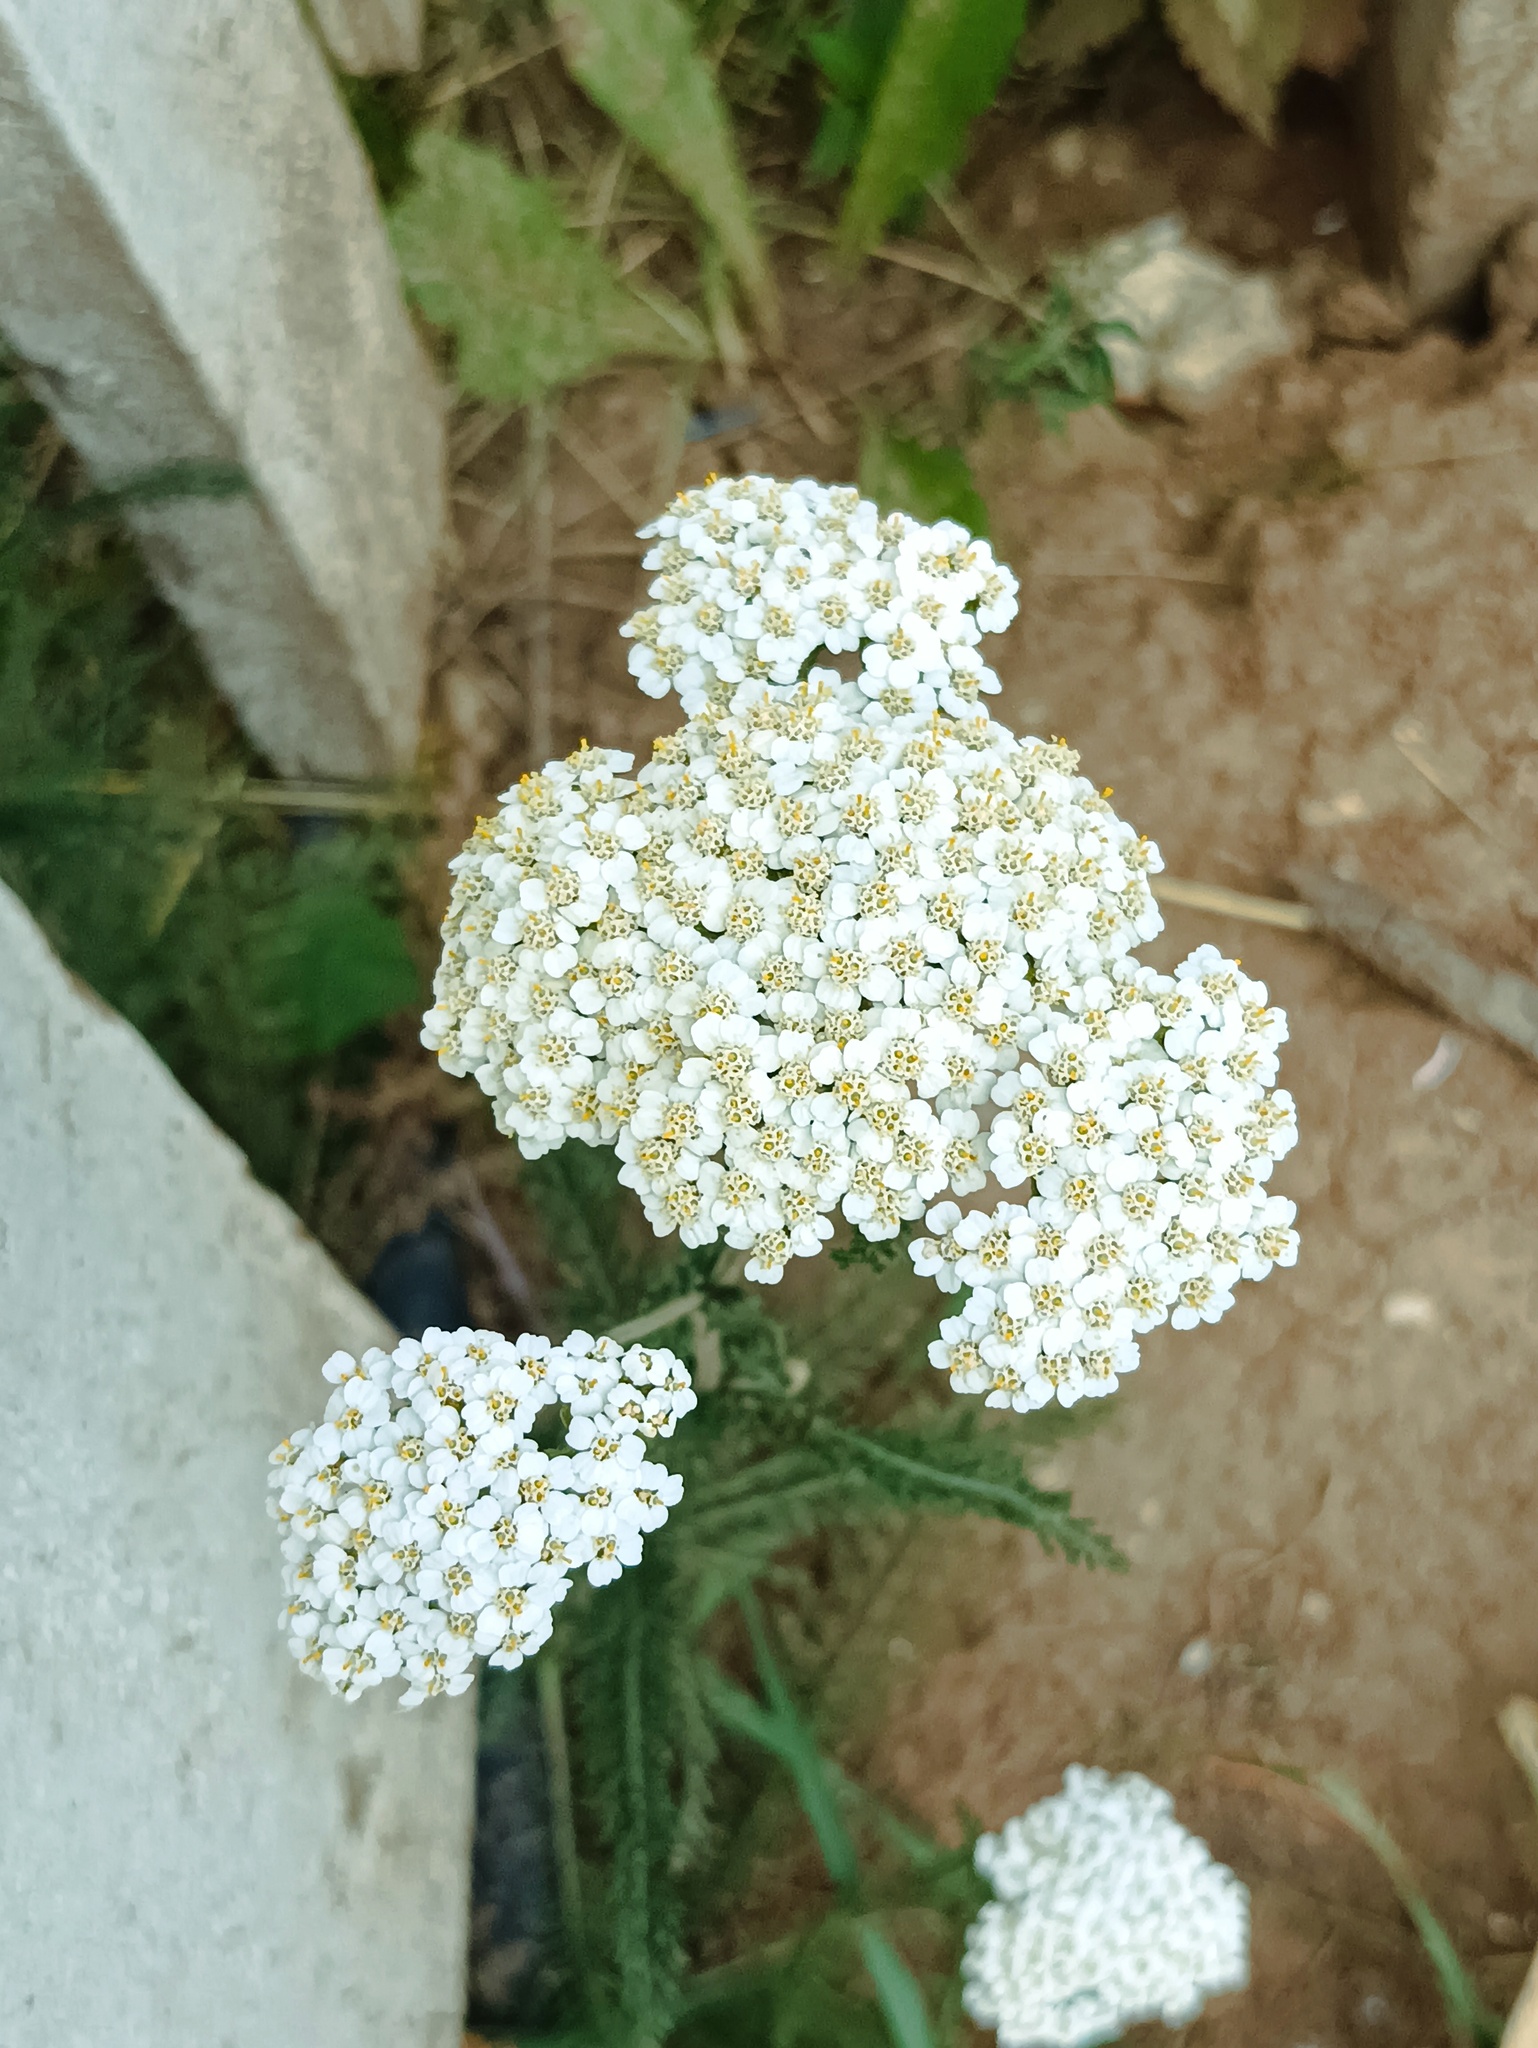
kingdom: Plantae
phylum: Tracheophyta
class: Magnoliopsida
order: Asterales
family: Asteraceae
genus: Achillea
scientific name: Achillea millefolium
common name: Yarrow
